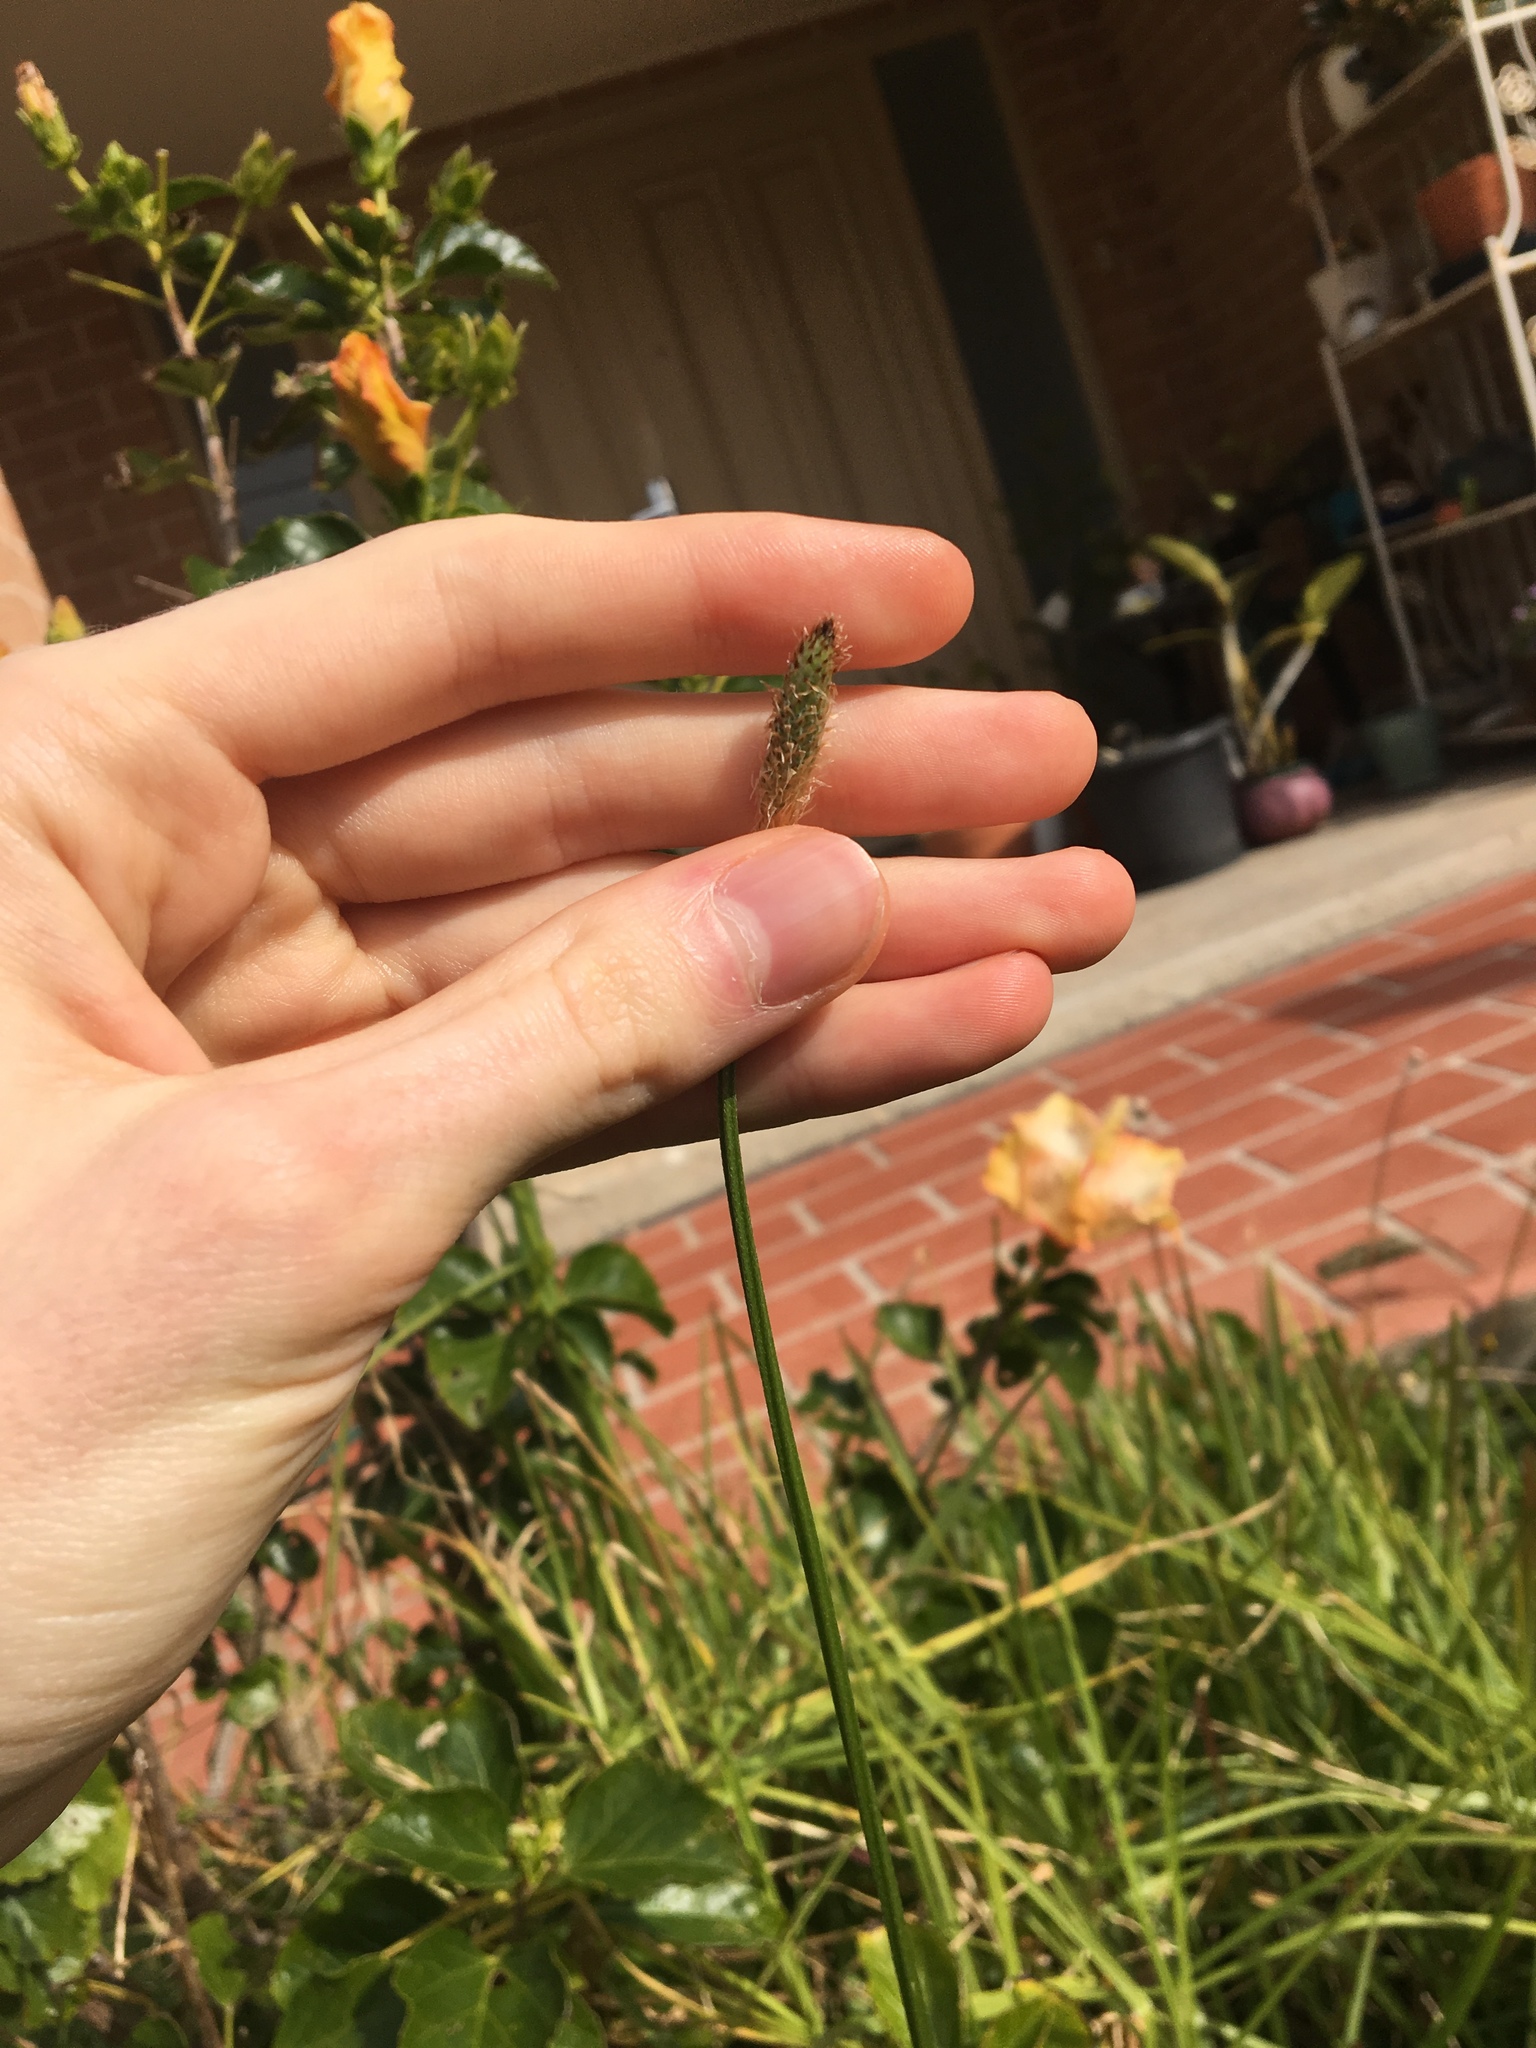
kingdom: Plantae
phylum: Tracheophyta
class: Magnoliopsida
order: Lamiales
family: Plantaginaceae
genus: Plantago
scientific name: Plantago lanceolata
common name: Ribwort plantain
